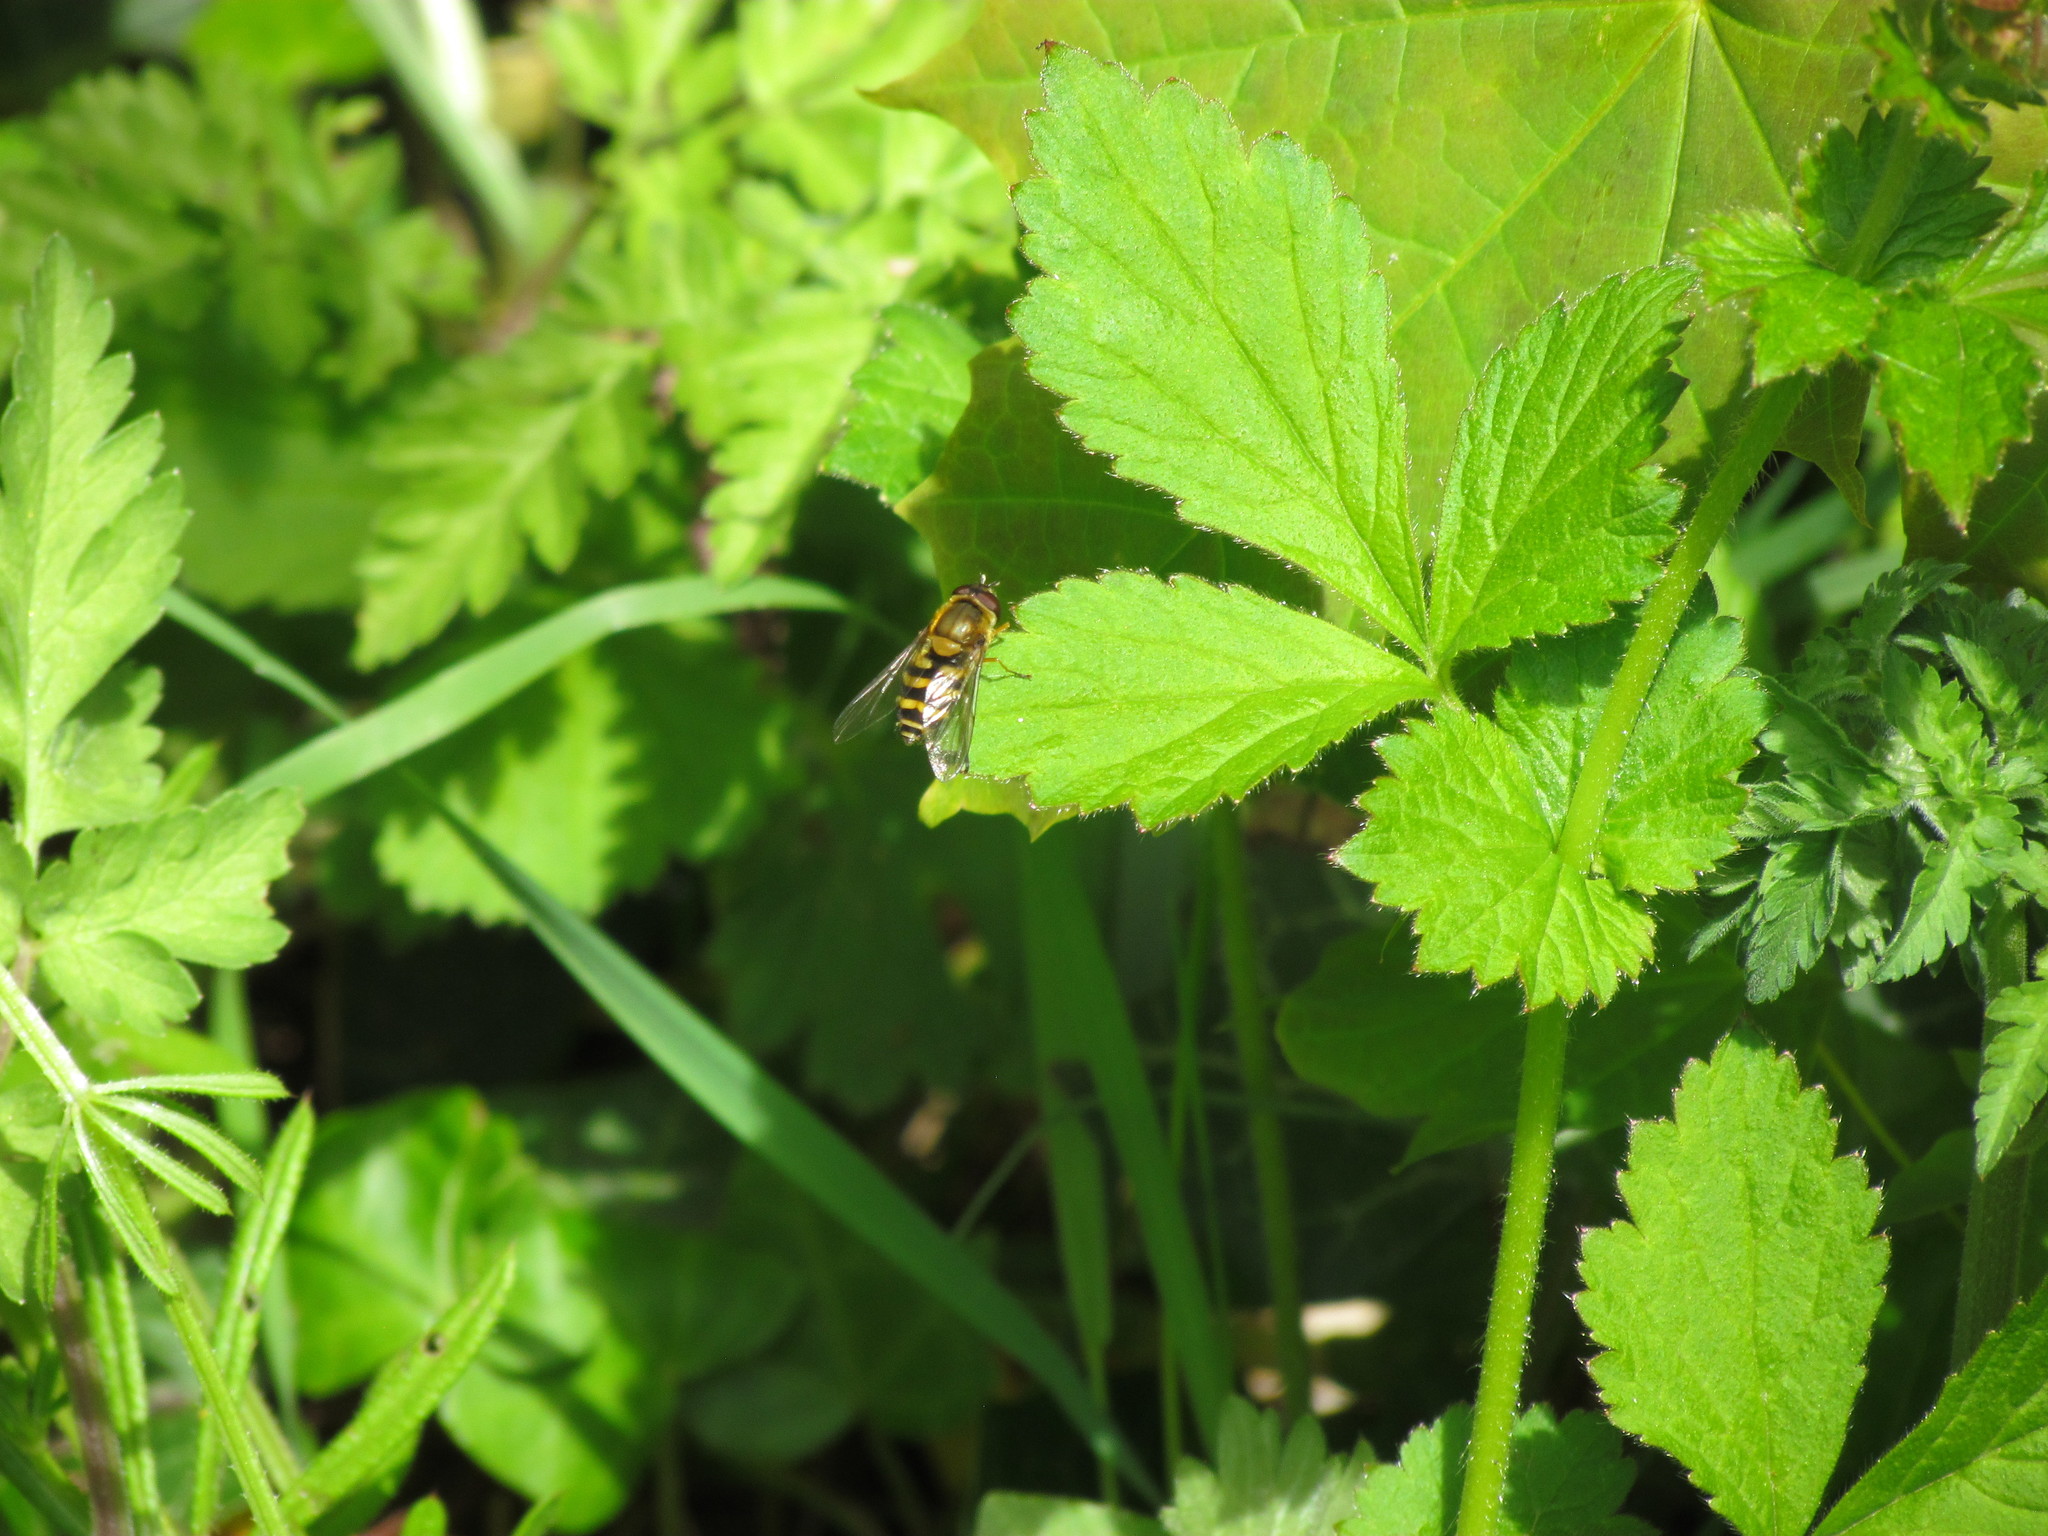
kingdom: Animalia
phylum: Arthropoda
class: Insecta
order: Diptera
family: Syrphidae
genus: Syrphus
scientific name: Syrphus
